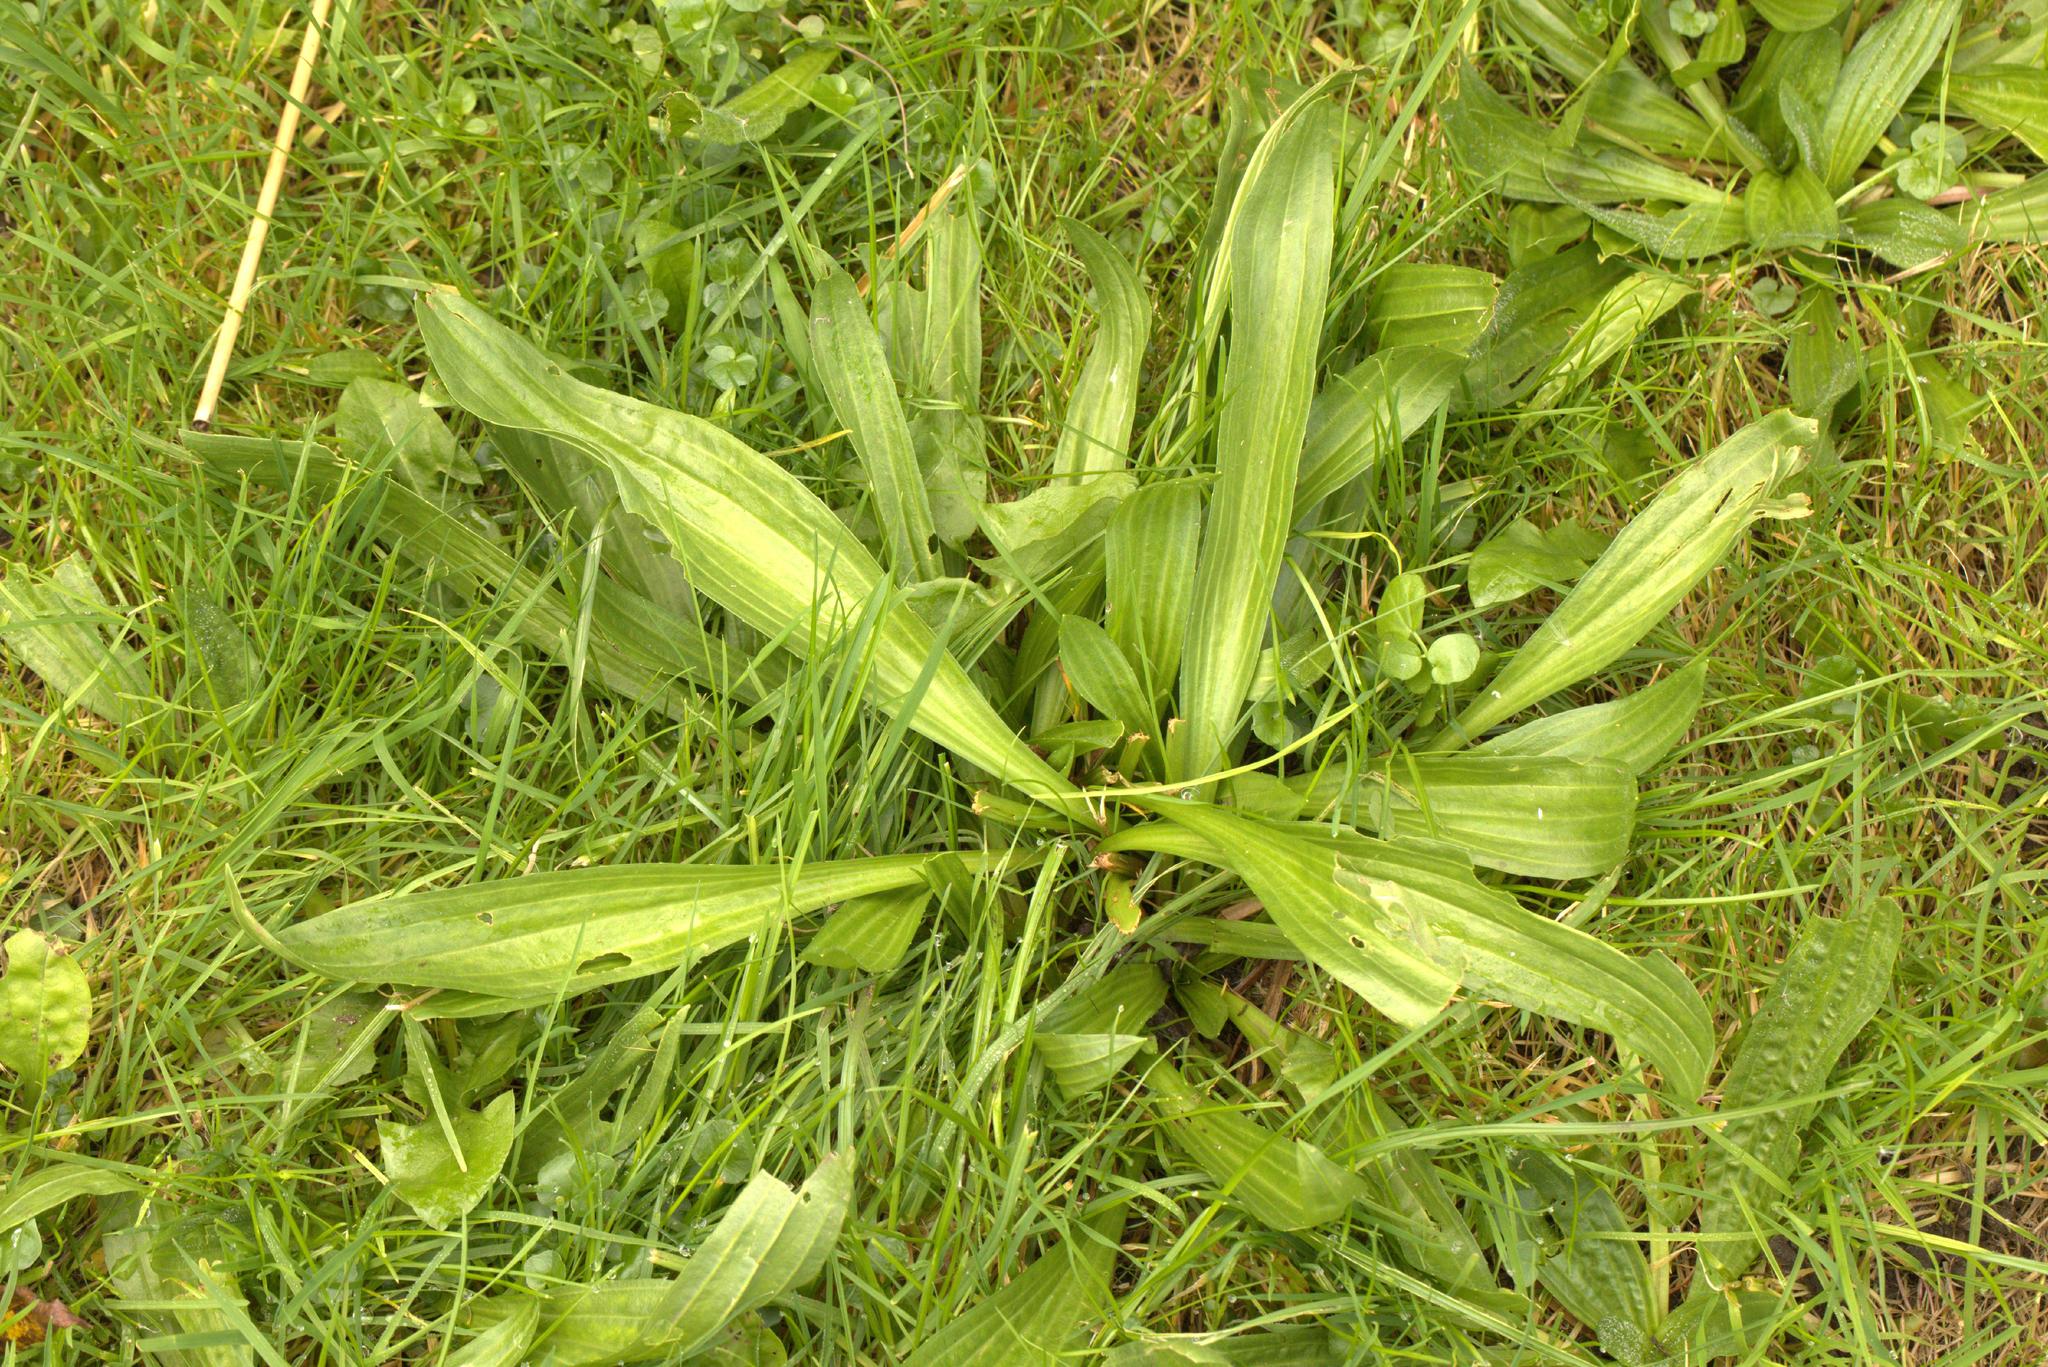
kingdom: Plantae
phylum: Tracheophyta
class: Magnoliopsida
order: Lamiales
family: Plantaginaceae
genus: Plantago
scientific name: Plantago lanceolata
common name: Ribwort plantain
